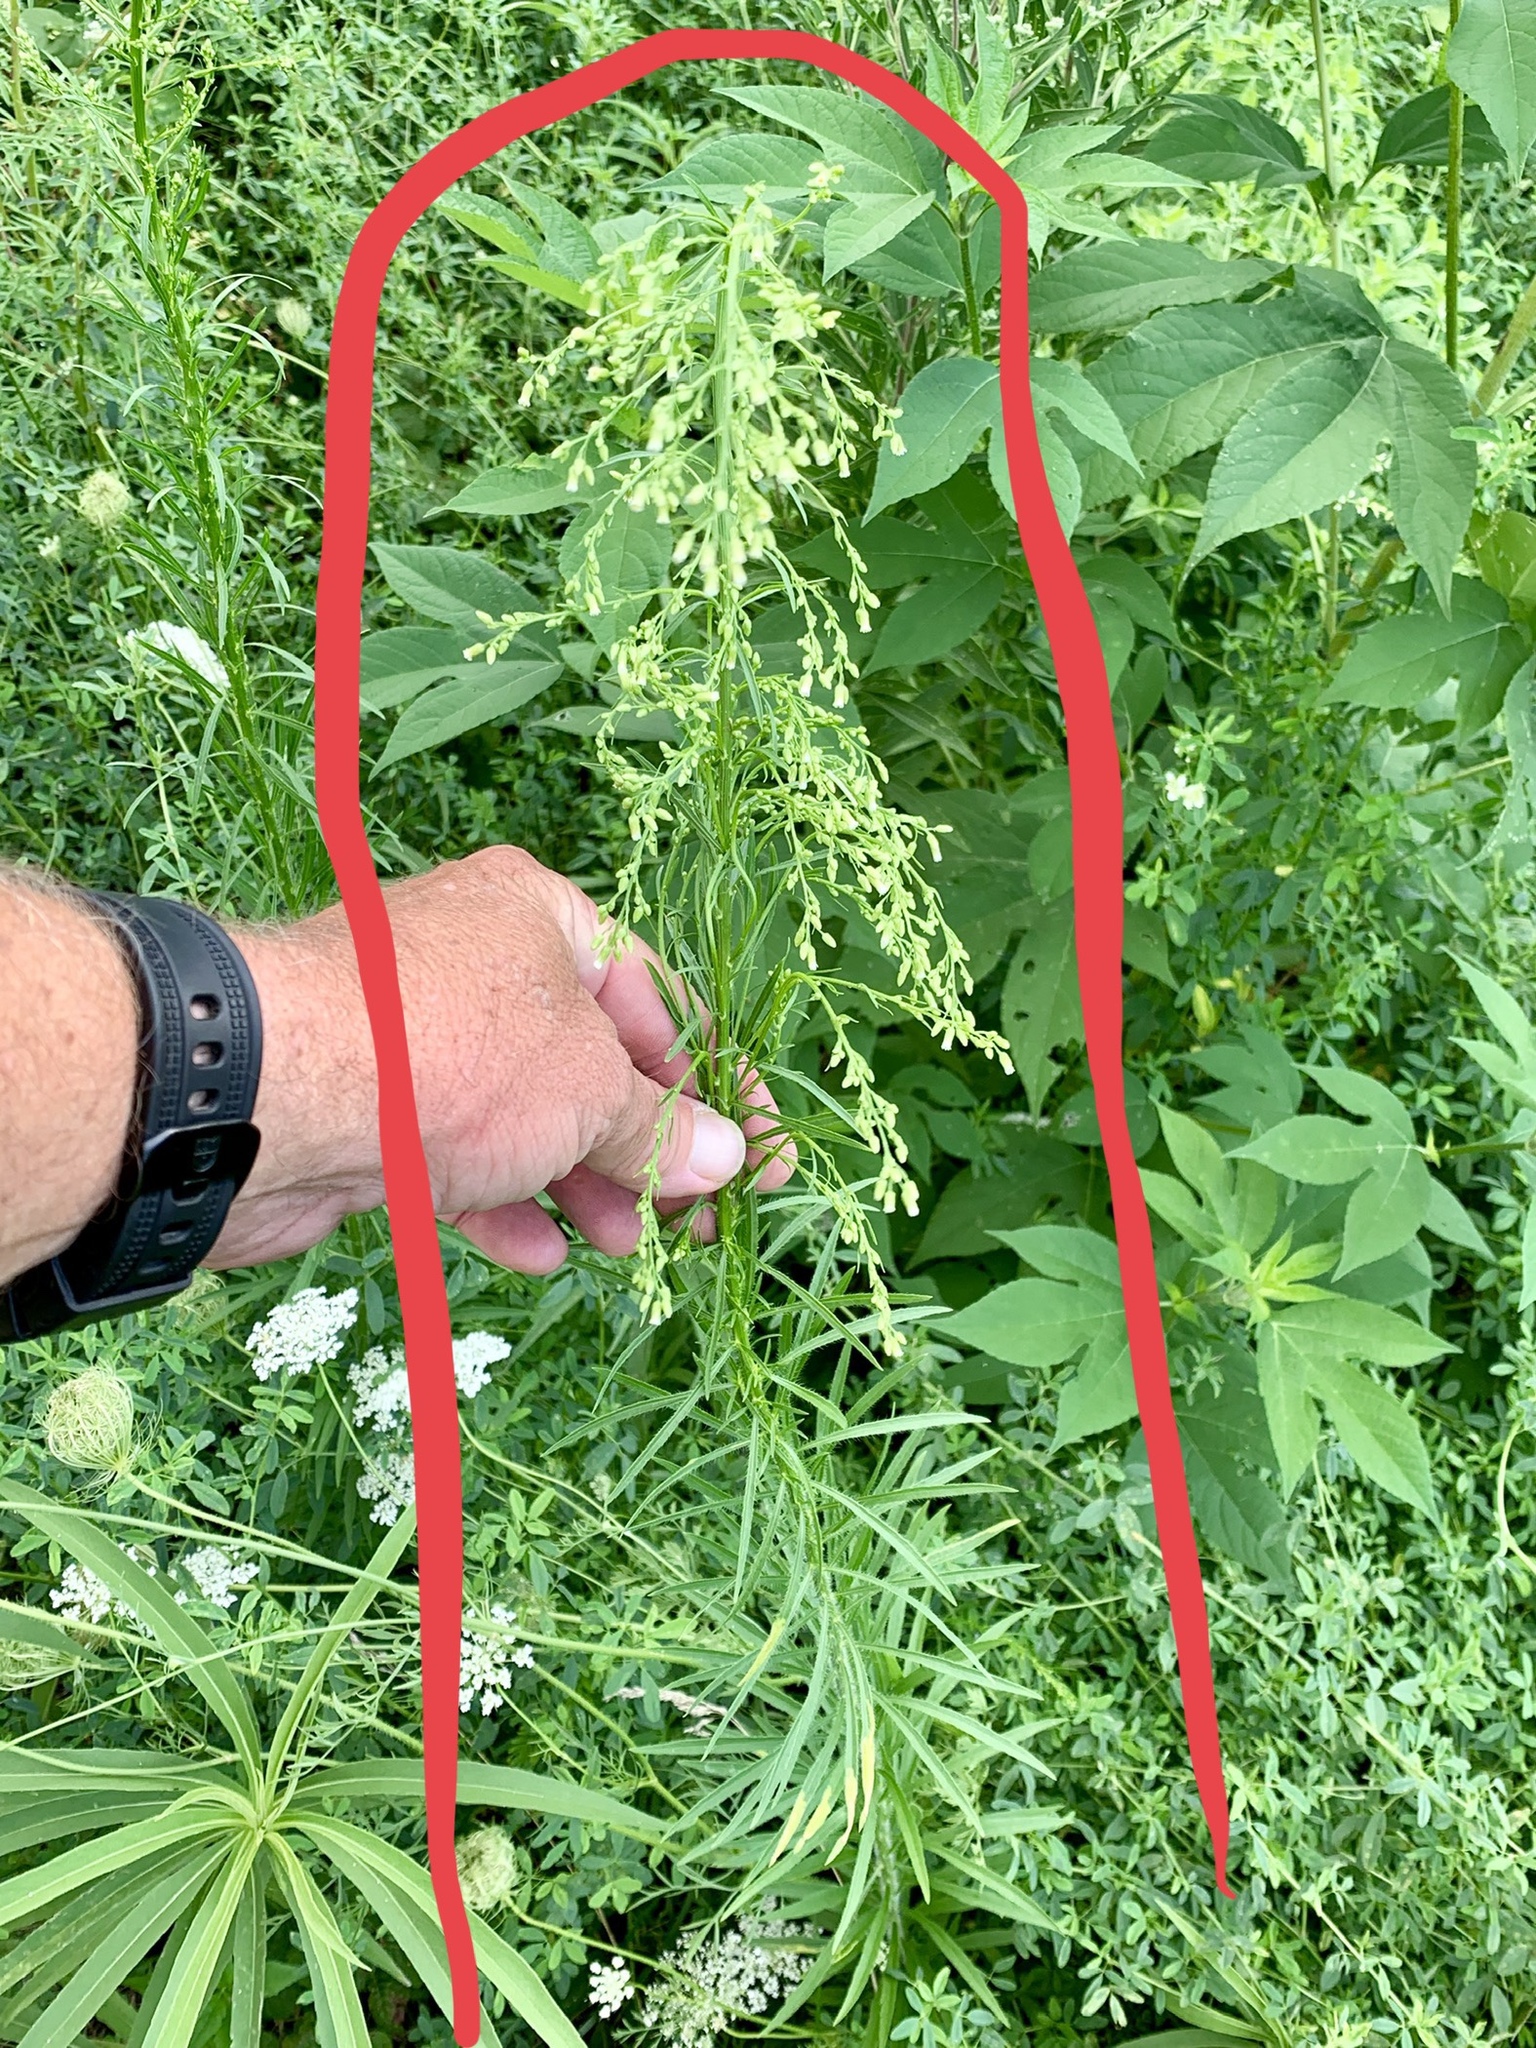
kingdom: Plantae
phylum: Tracheophyta
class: Magnoliopsida
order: Asterales
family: Asteraceae
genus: Erigeron
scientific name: Erigeron canadensis
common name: Canadian fleabane
